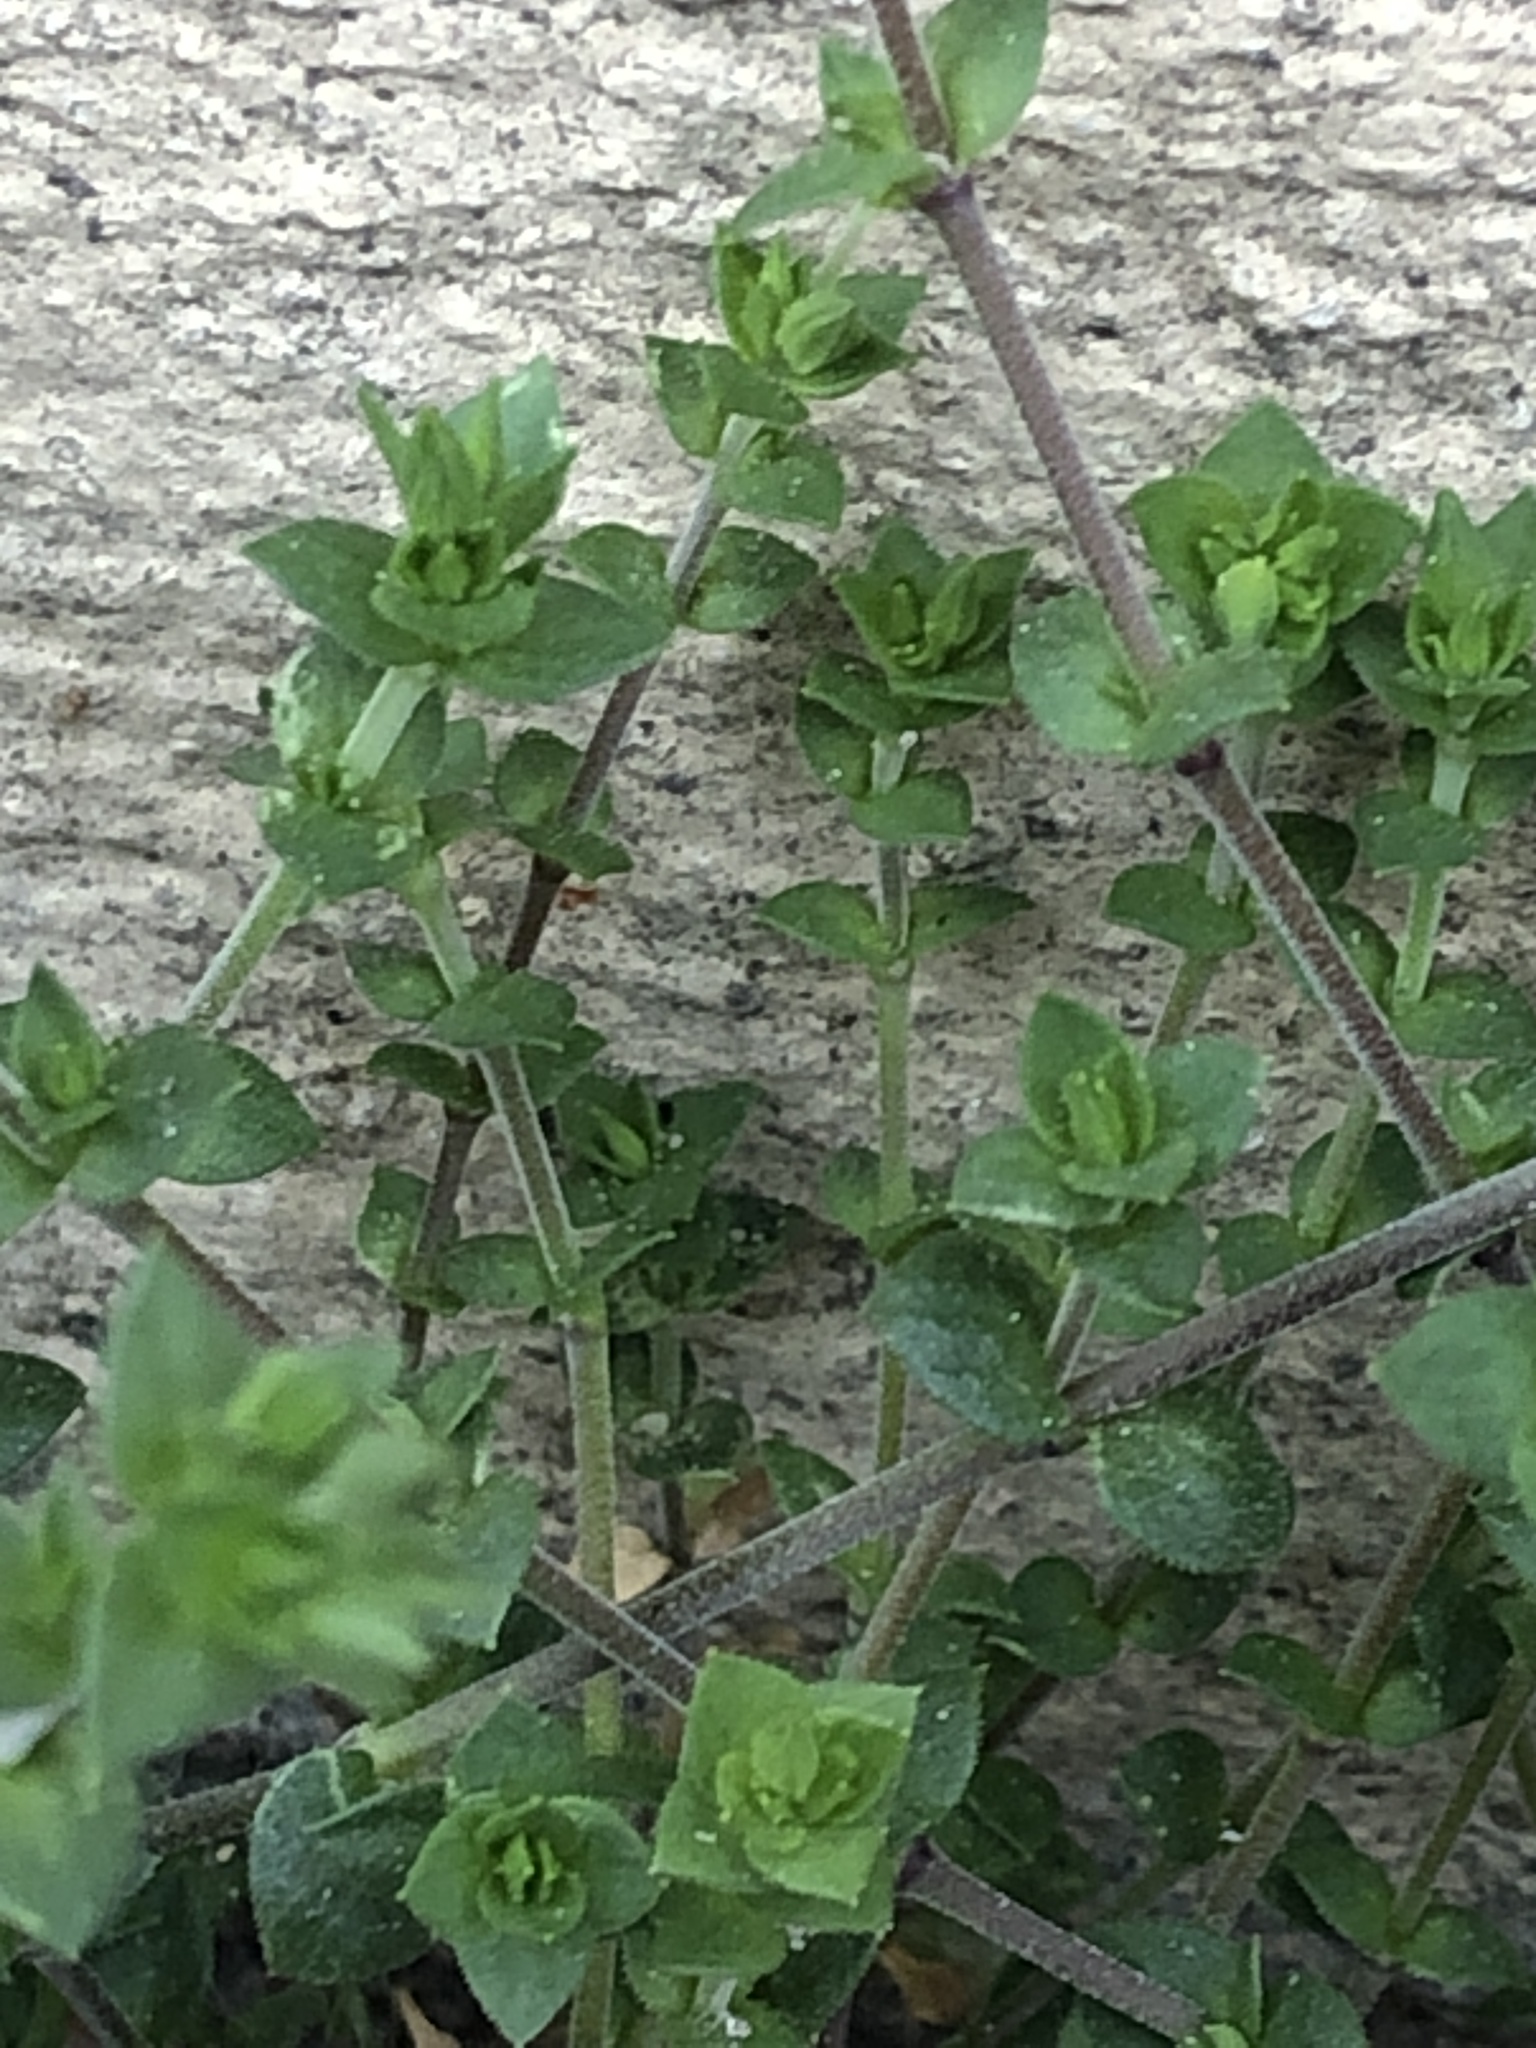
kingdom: Plantae
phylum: Tracheophyta
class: Magnoliopsida
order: Caryophyllales
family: Caryophyllaceae
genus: Arenaria
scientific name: Arenaria serpyllifolia
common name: Thyme-leaved sandwort
